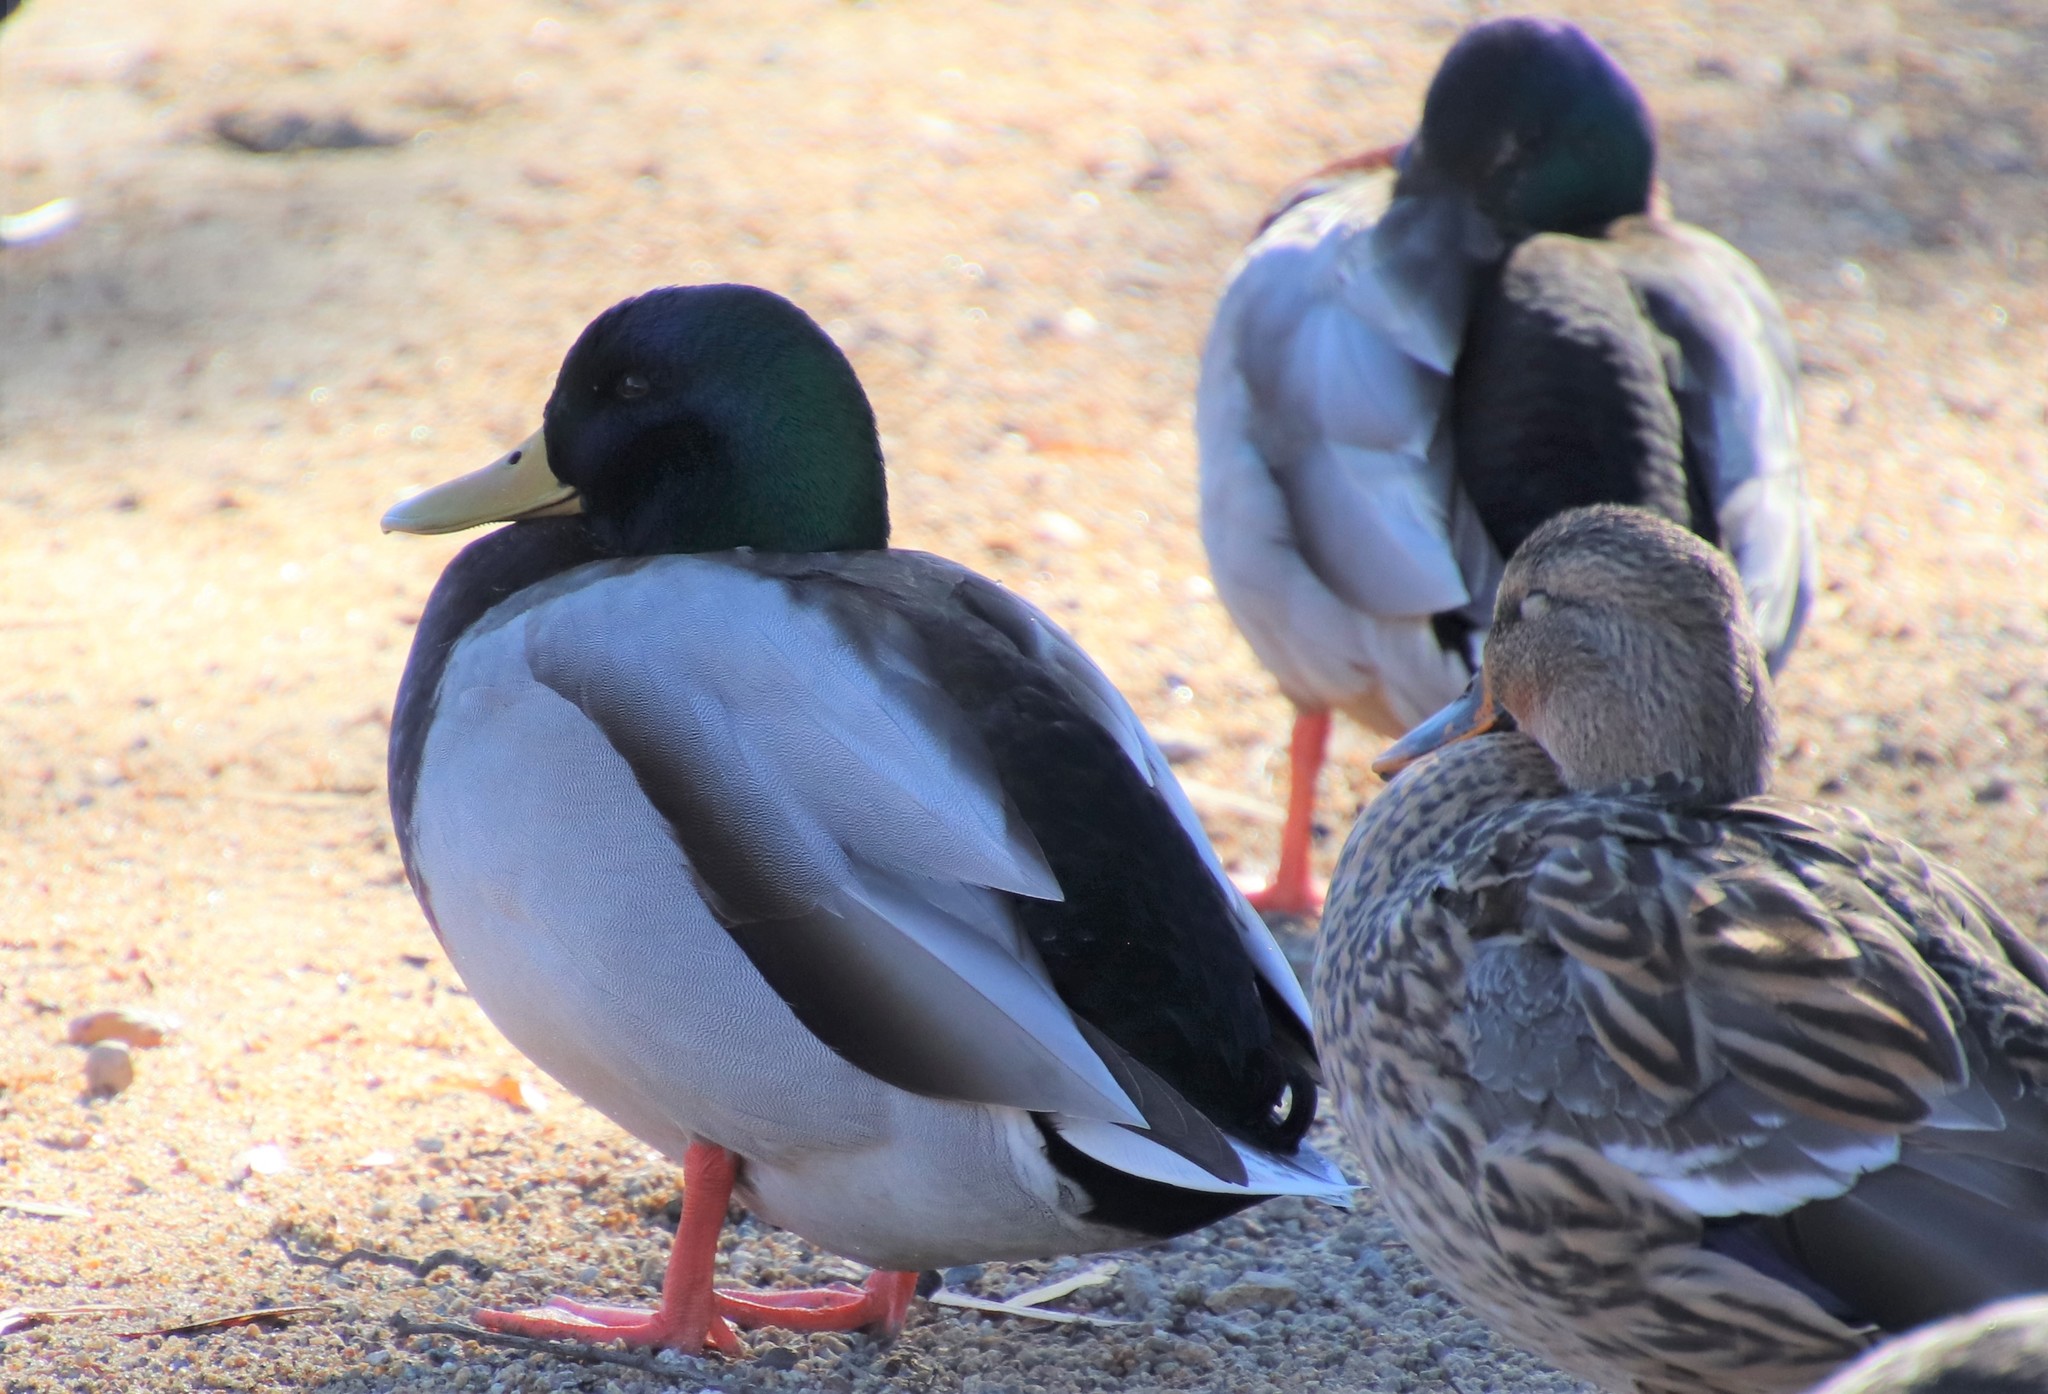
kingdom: Animalia
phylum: Chordata
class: Aves
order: Anseriformes
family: Anatidae
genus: Anas
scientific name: Anas platyrhynchos
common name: Mallard
